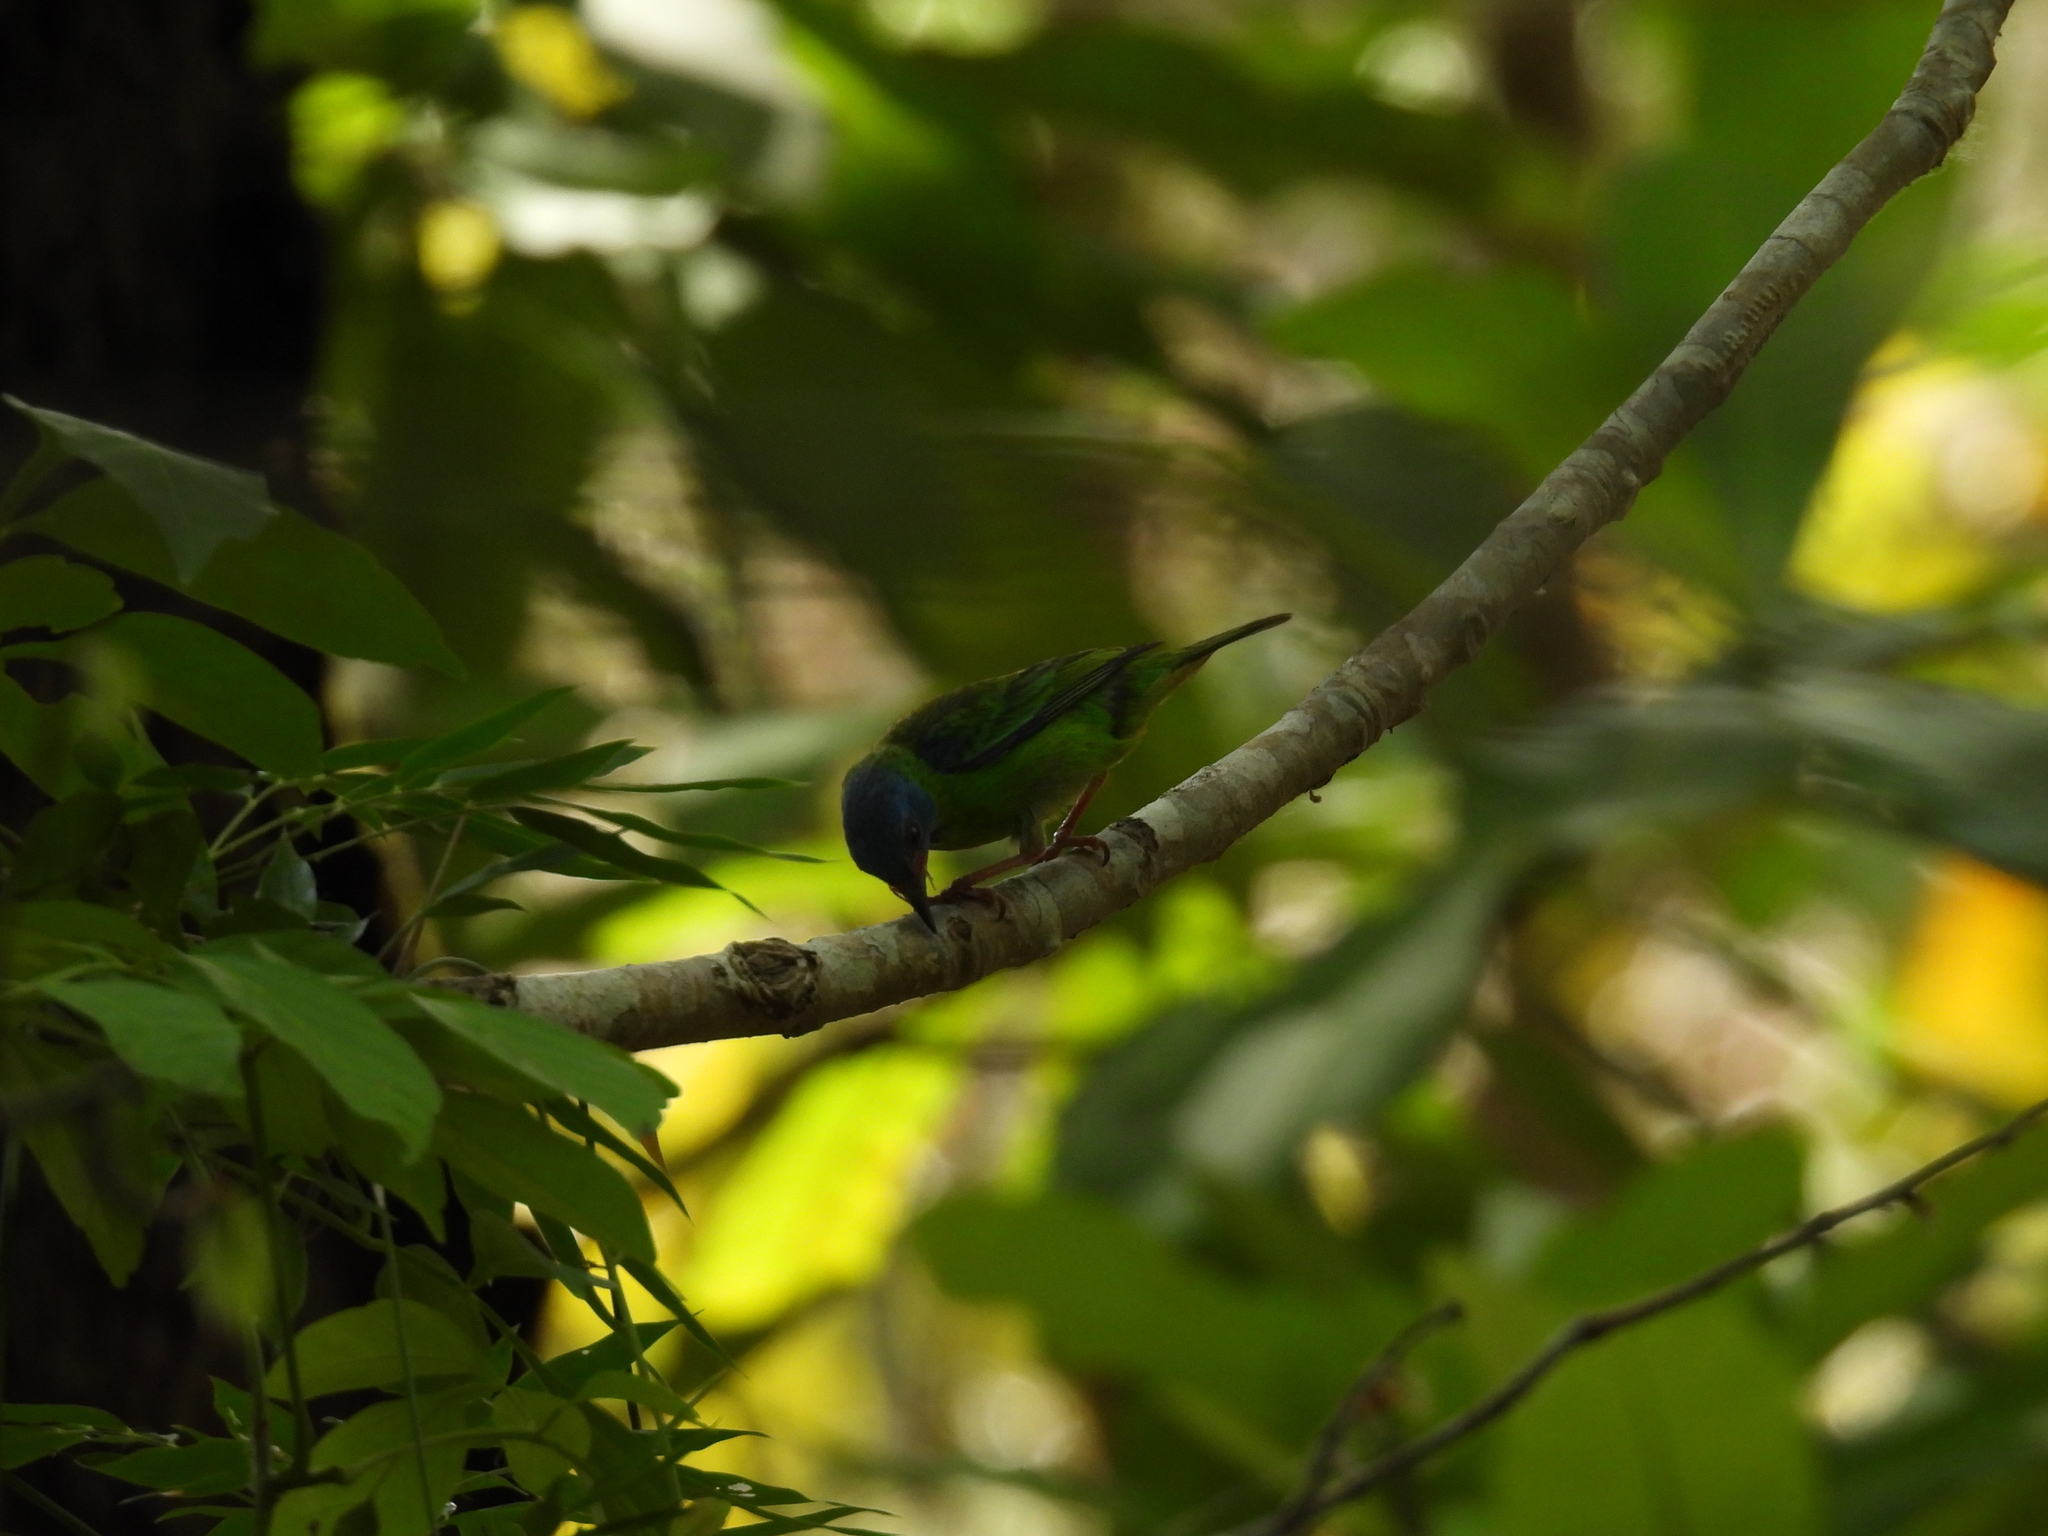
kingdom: Animalia
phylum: Chordata
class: Aves
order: Passeriformes
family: Thraupidae
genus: Dacnis
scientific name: Dacnis cayana
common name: Blue dacnis
